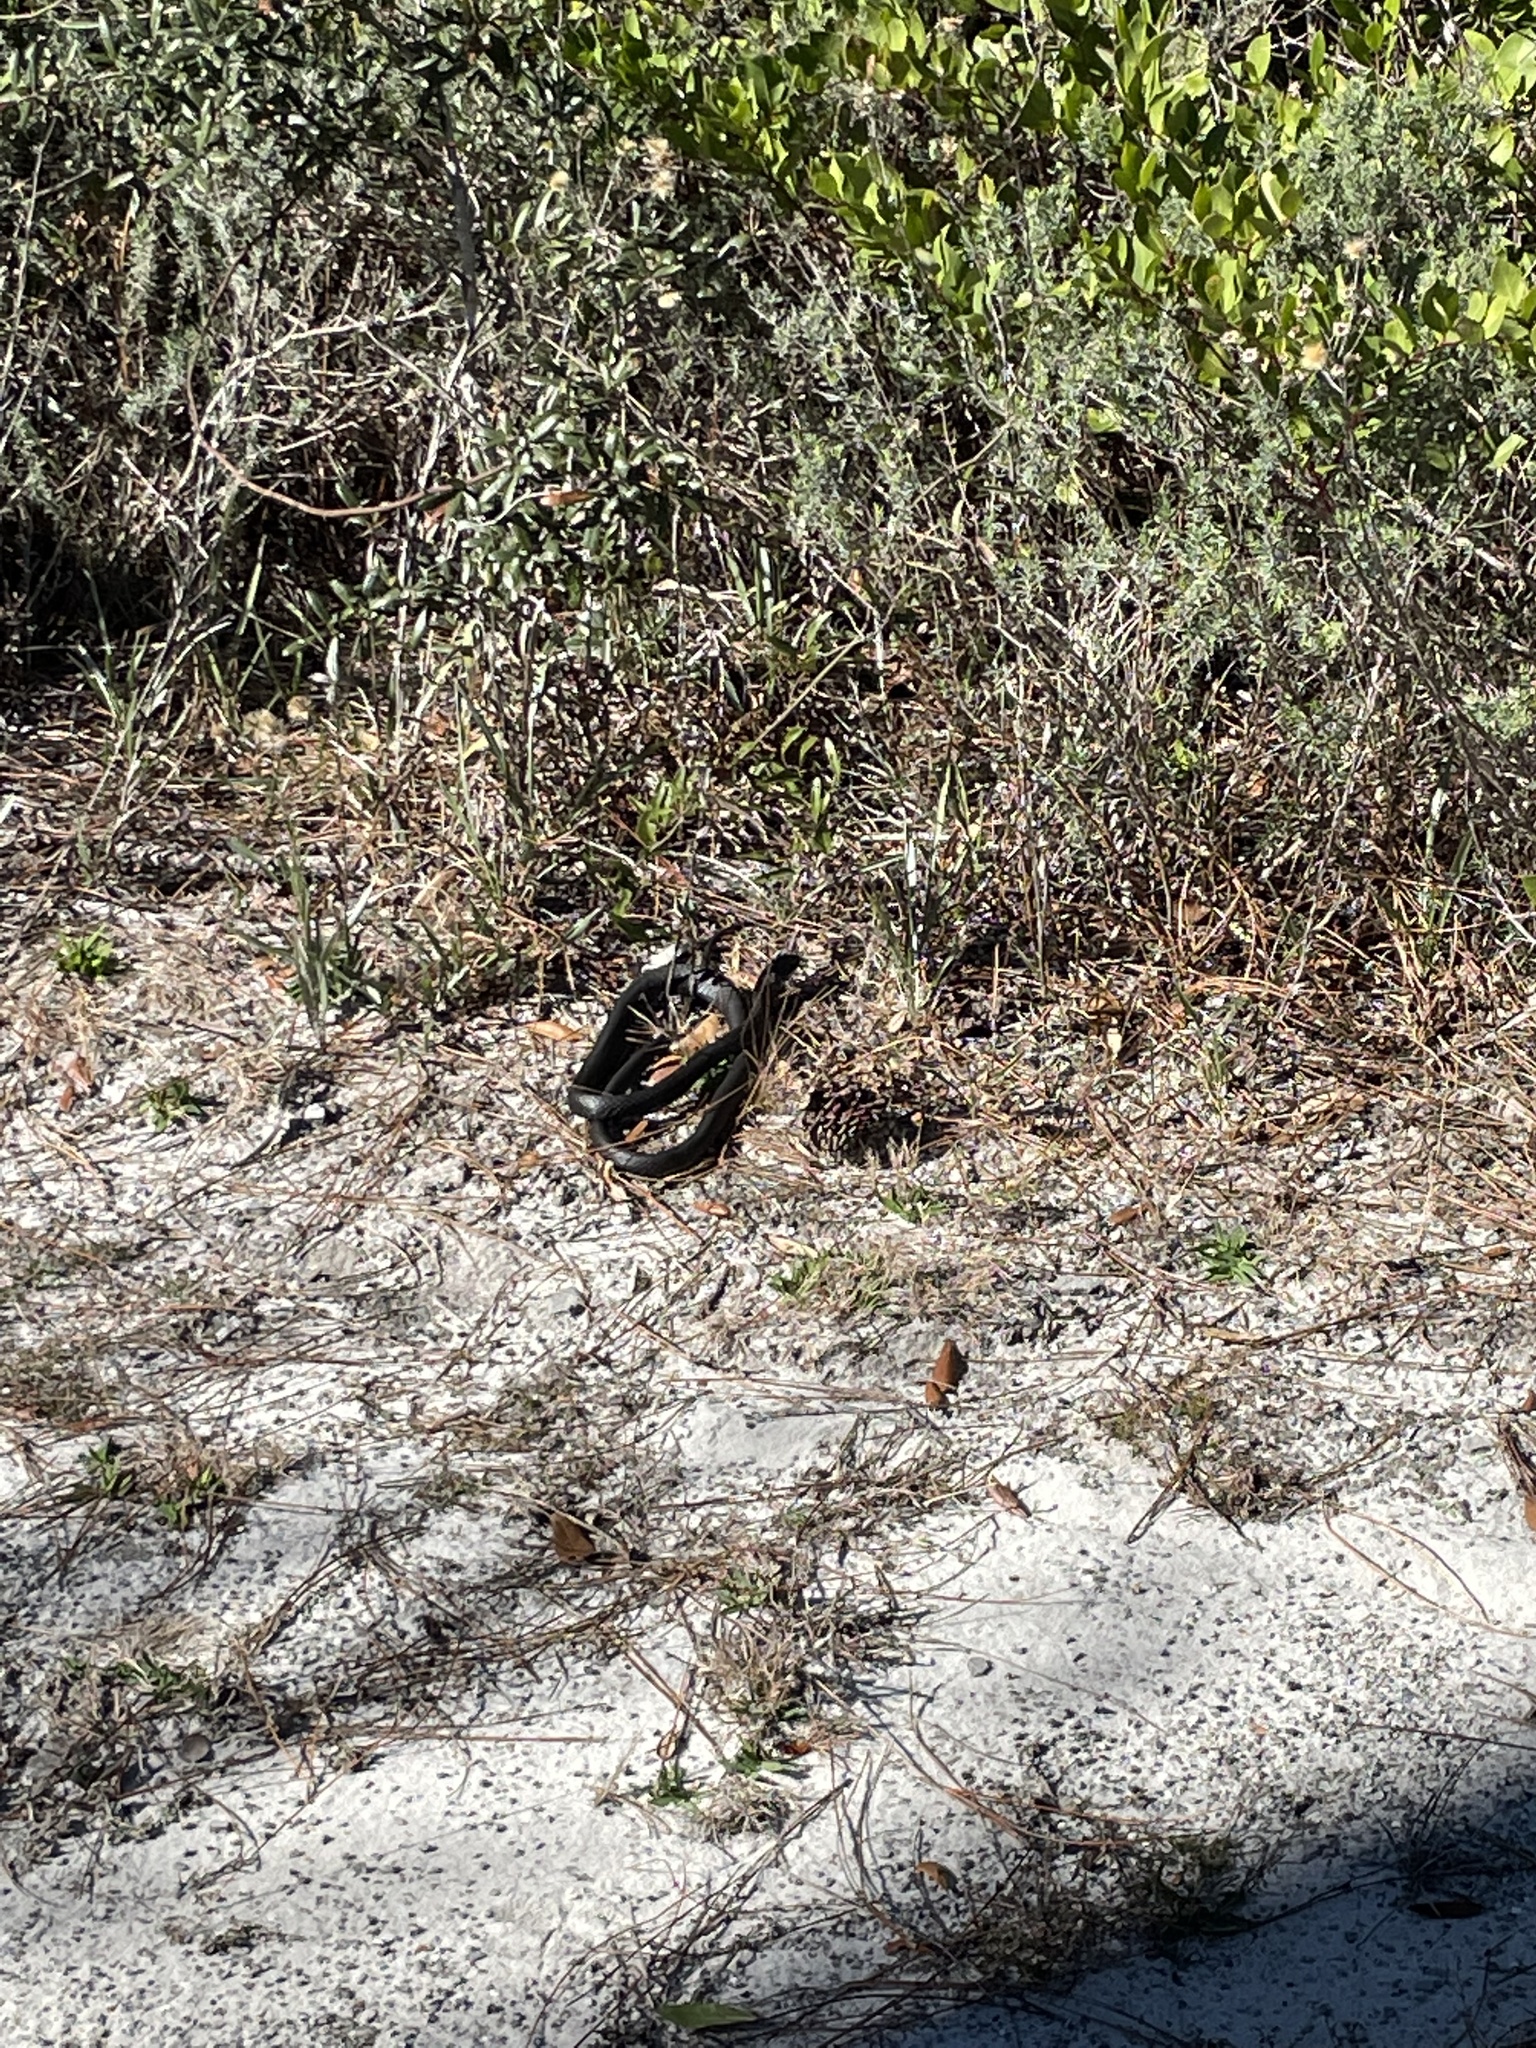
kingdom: Animalia
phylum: Chordata
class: Squamata
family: Colubridae
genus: Coluber
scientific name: Coluber constrictor
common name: Eastern racer
